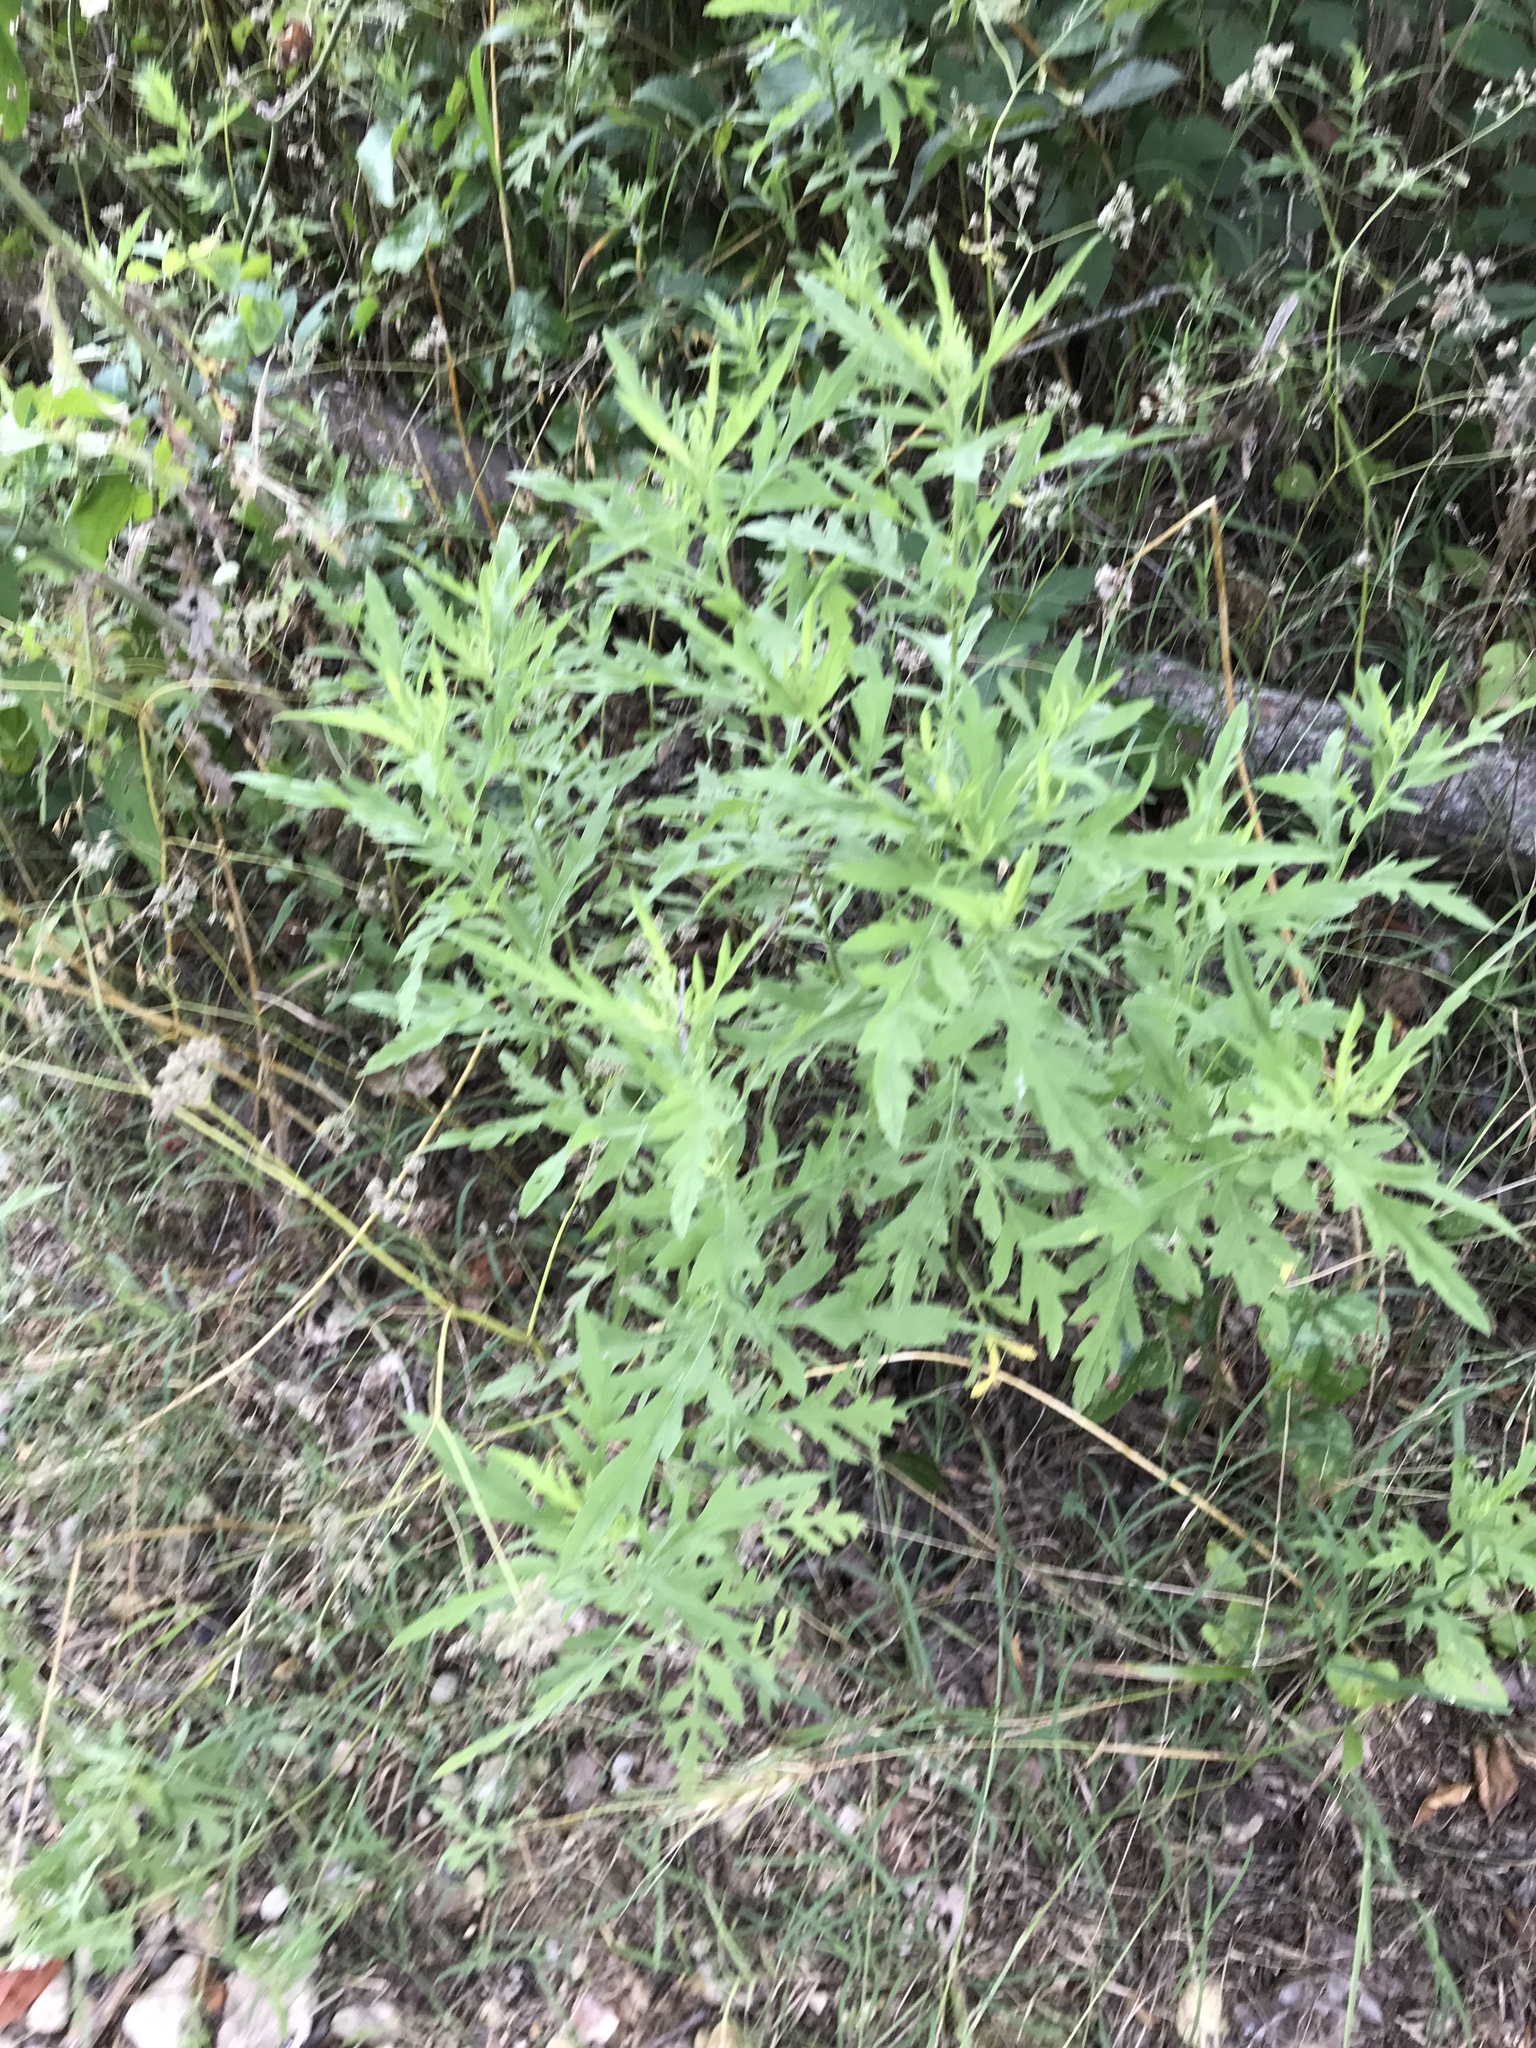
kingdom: Plantae
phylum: Tracheophyta
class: Magnoliopsida
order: Asterales
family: Asteraceae
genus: Ambrosia
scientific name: Ambrosia psilostachya
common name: Perennial ragweed
